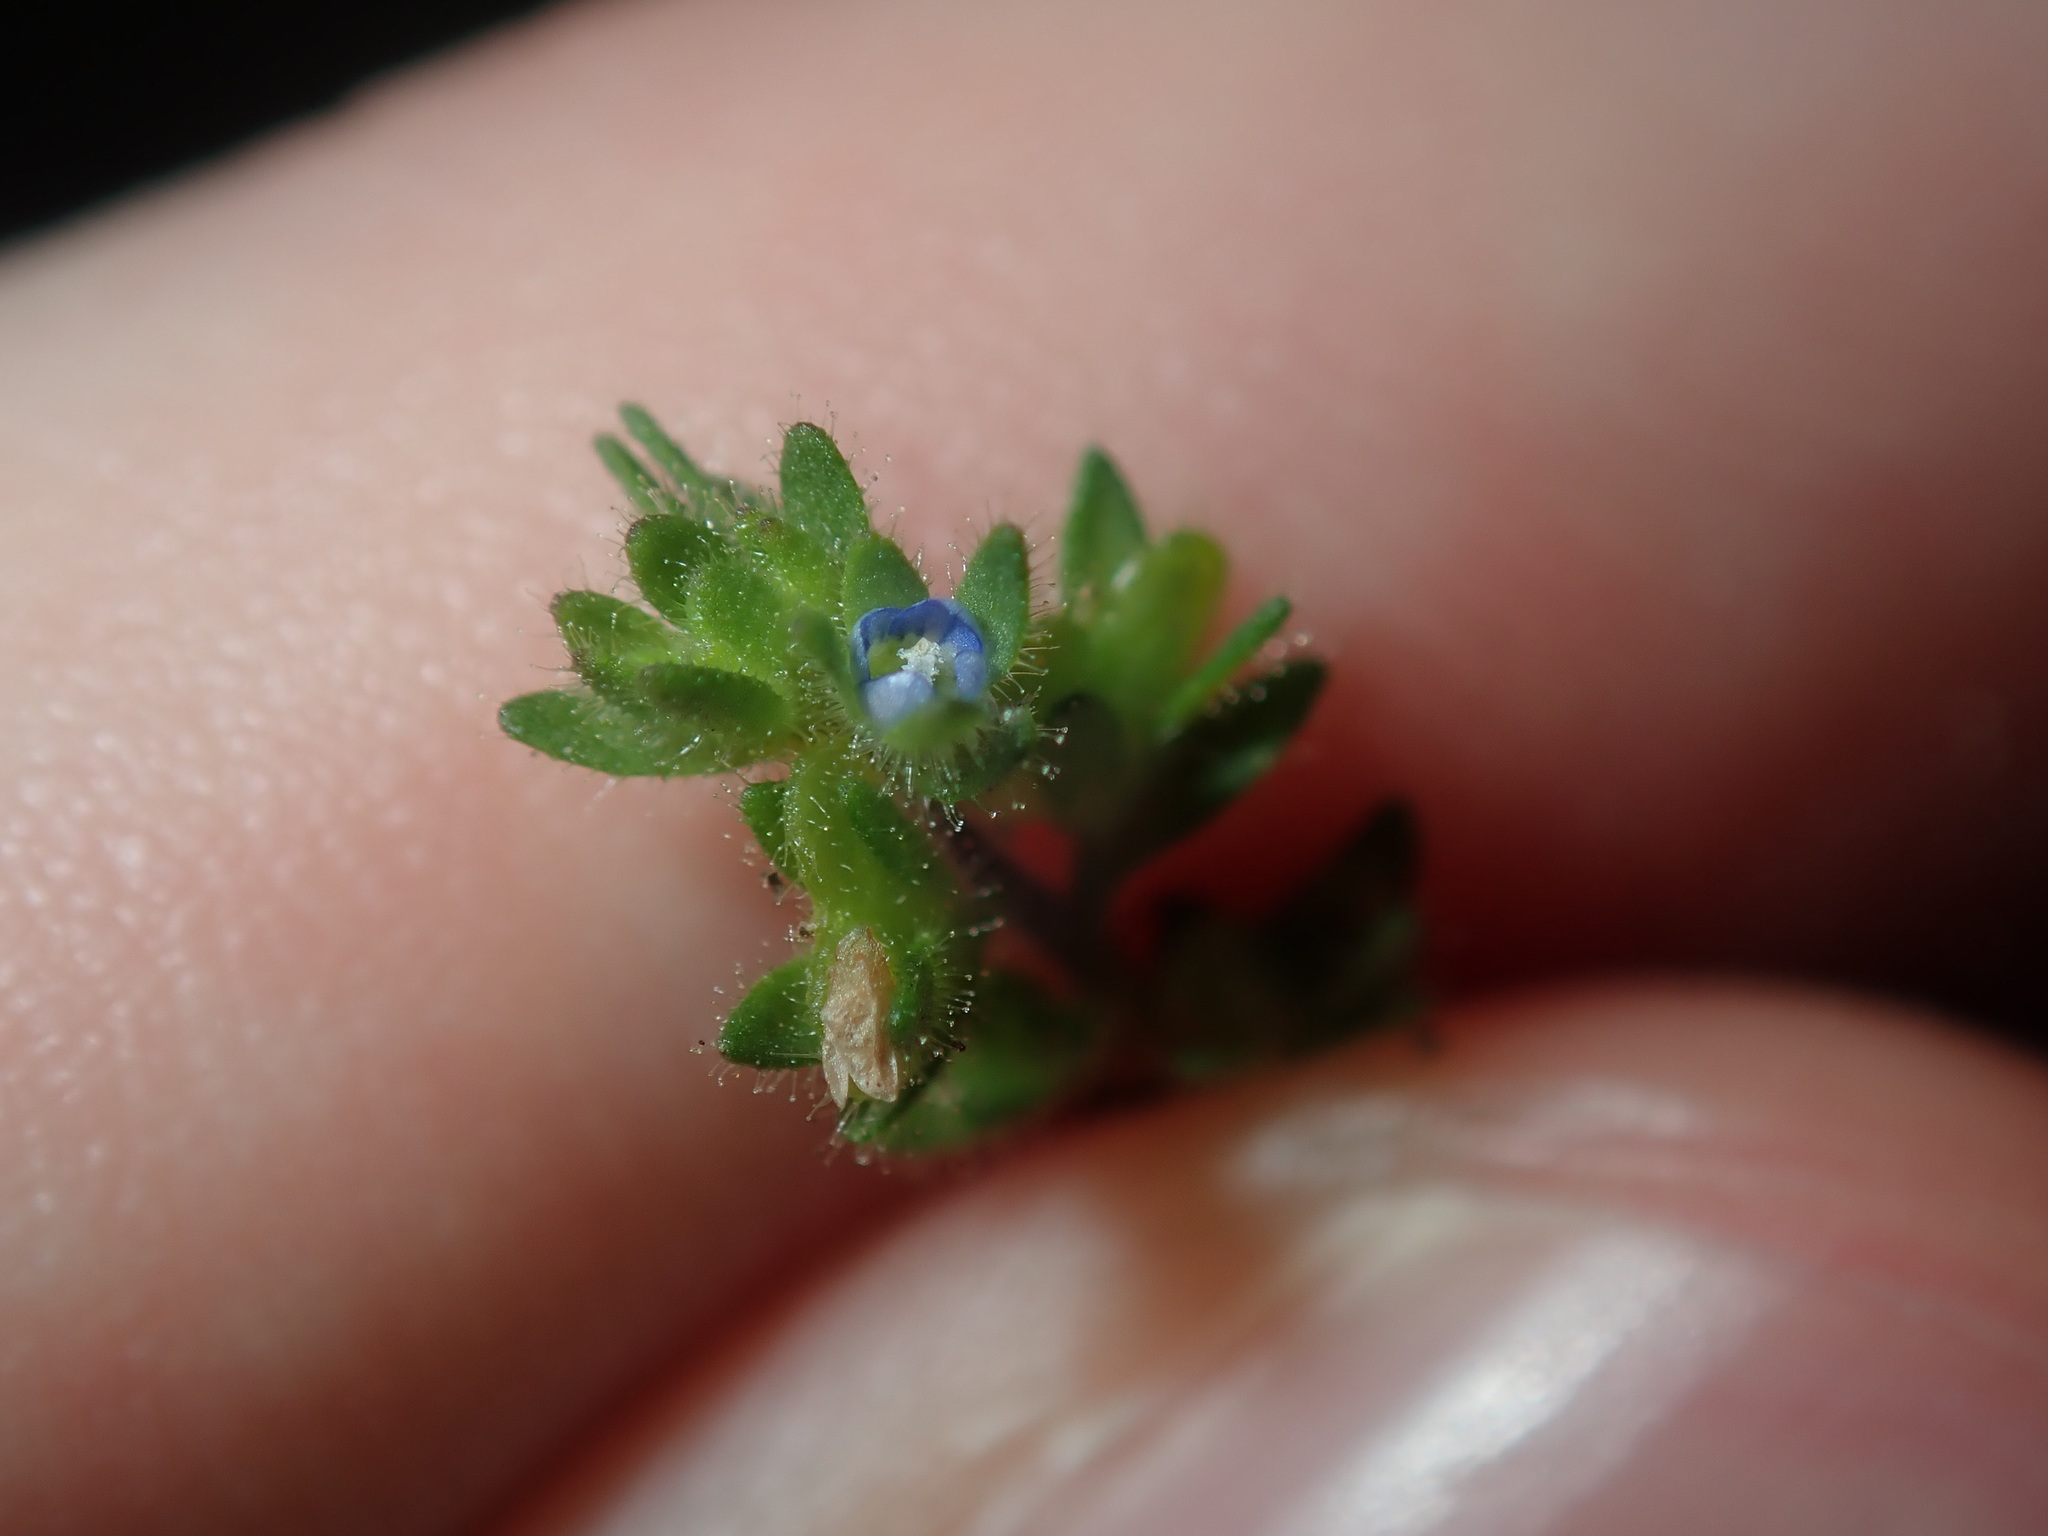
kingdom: Plantae
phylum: Tracheophyta
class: Magnoliopsida
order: Lamiales
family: Plantaginaceae
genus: Veronica
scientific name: Veronica arvensis
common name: Corn speedwell
